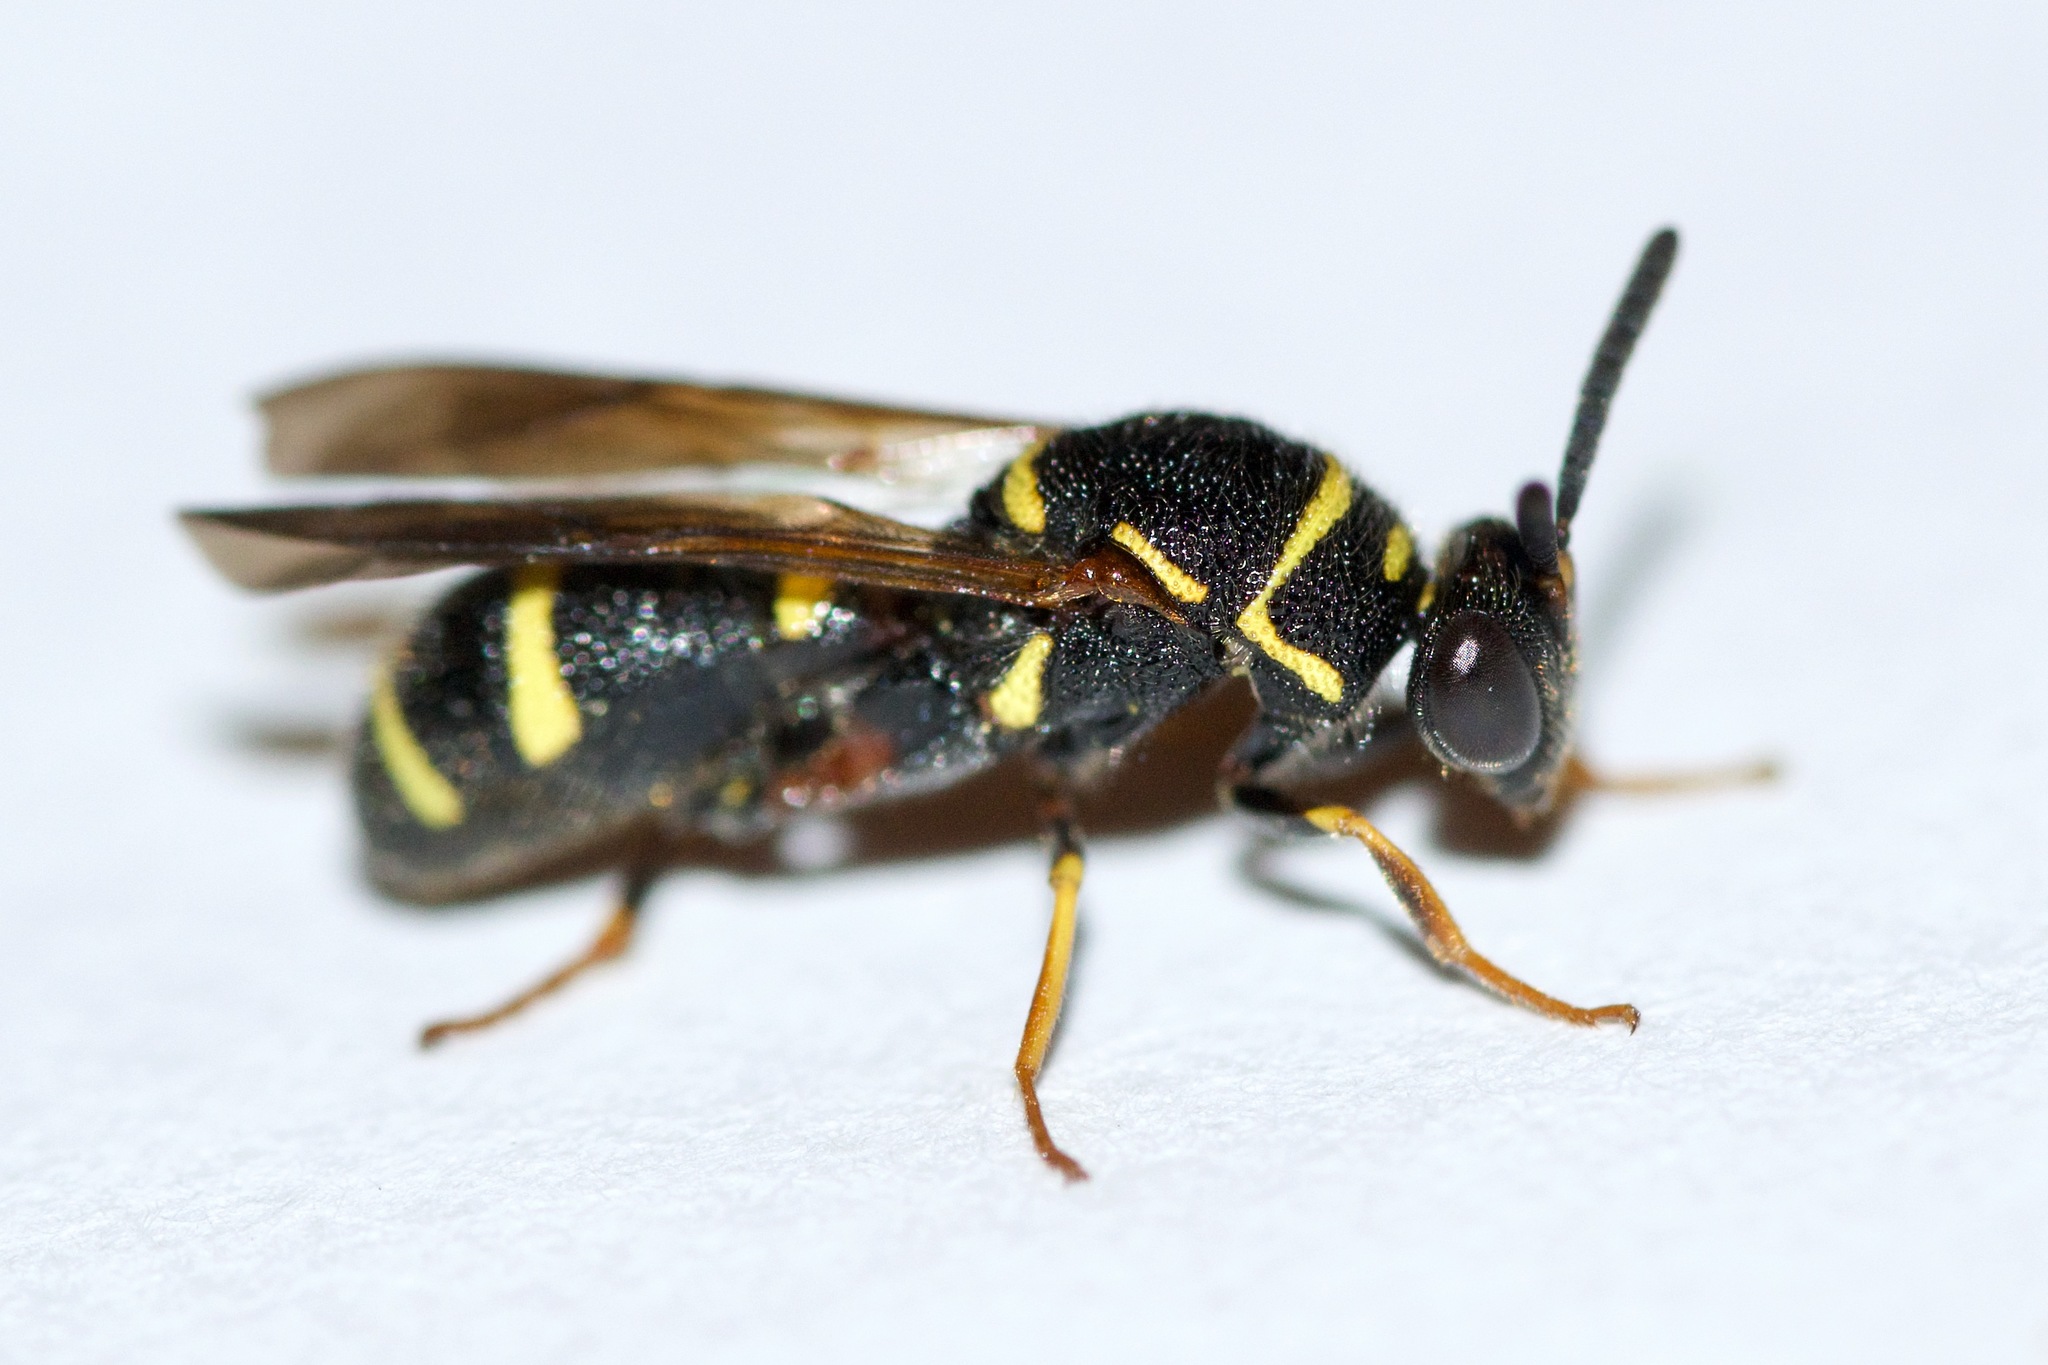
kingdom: Animalia
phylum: Arthropoda
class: Insecta
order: Hymenoptera
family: Leucospidae
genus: Leucospis
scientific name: Leucospis affinis
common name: Wasp
